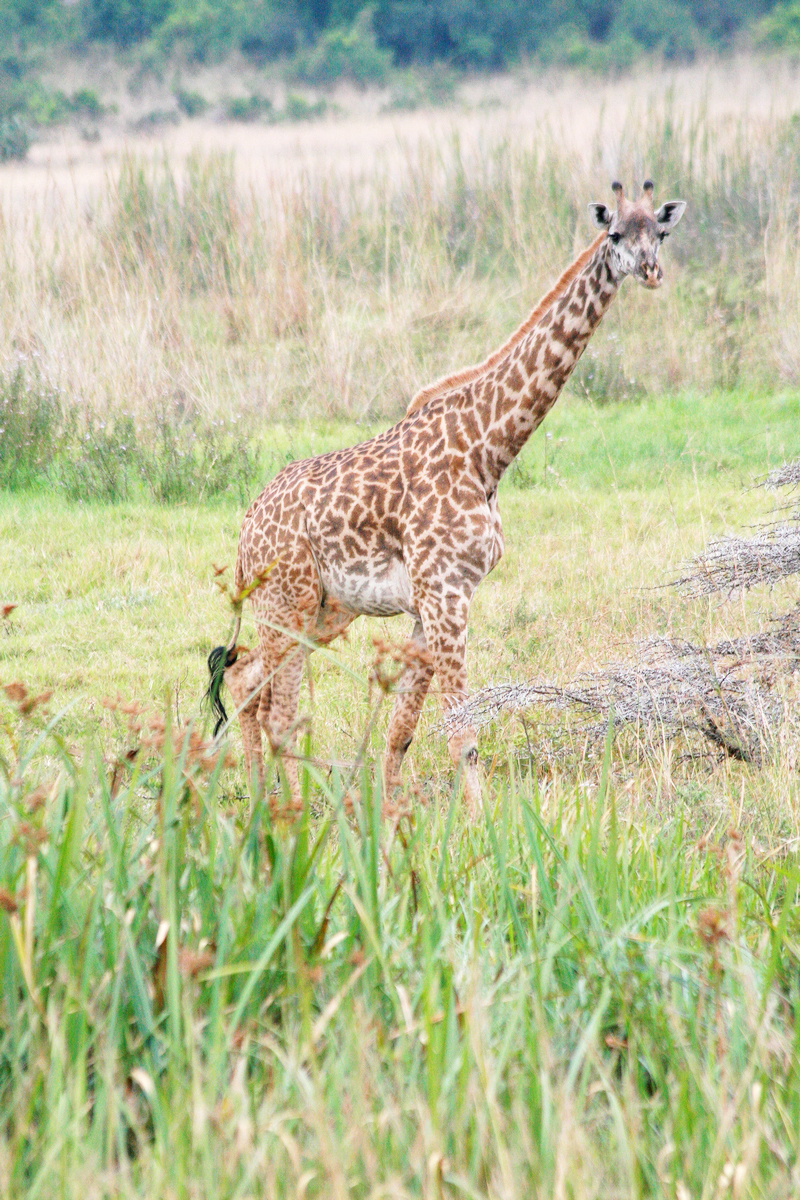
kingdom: Animalia
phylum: Chordata
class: Mammalia
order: Artiodactyla
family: Giraffidae
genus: Giraffa
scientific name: Giraffa tippelskirchi
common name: Masai giraffe
